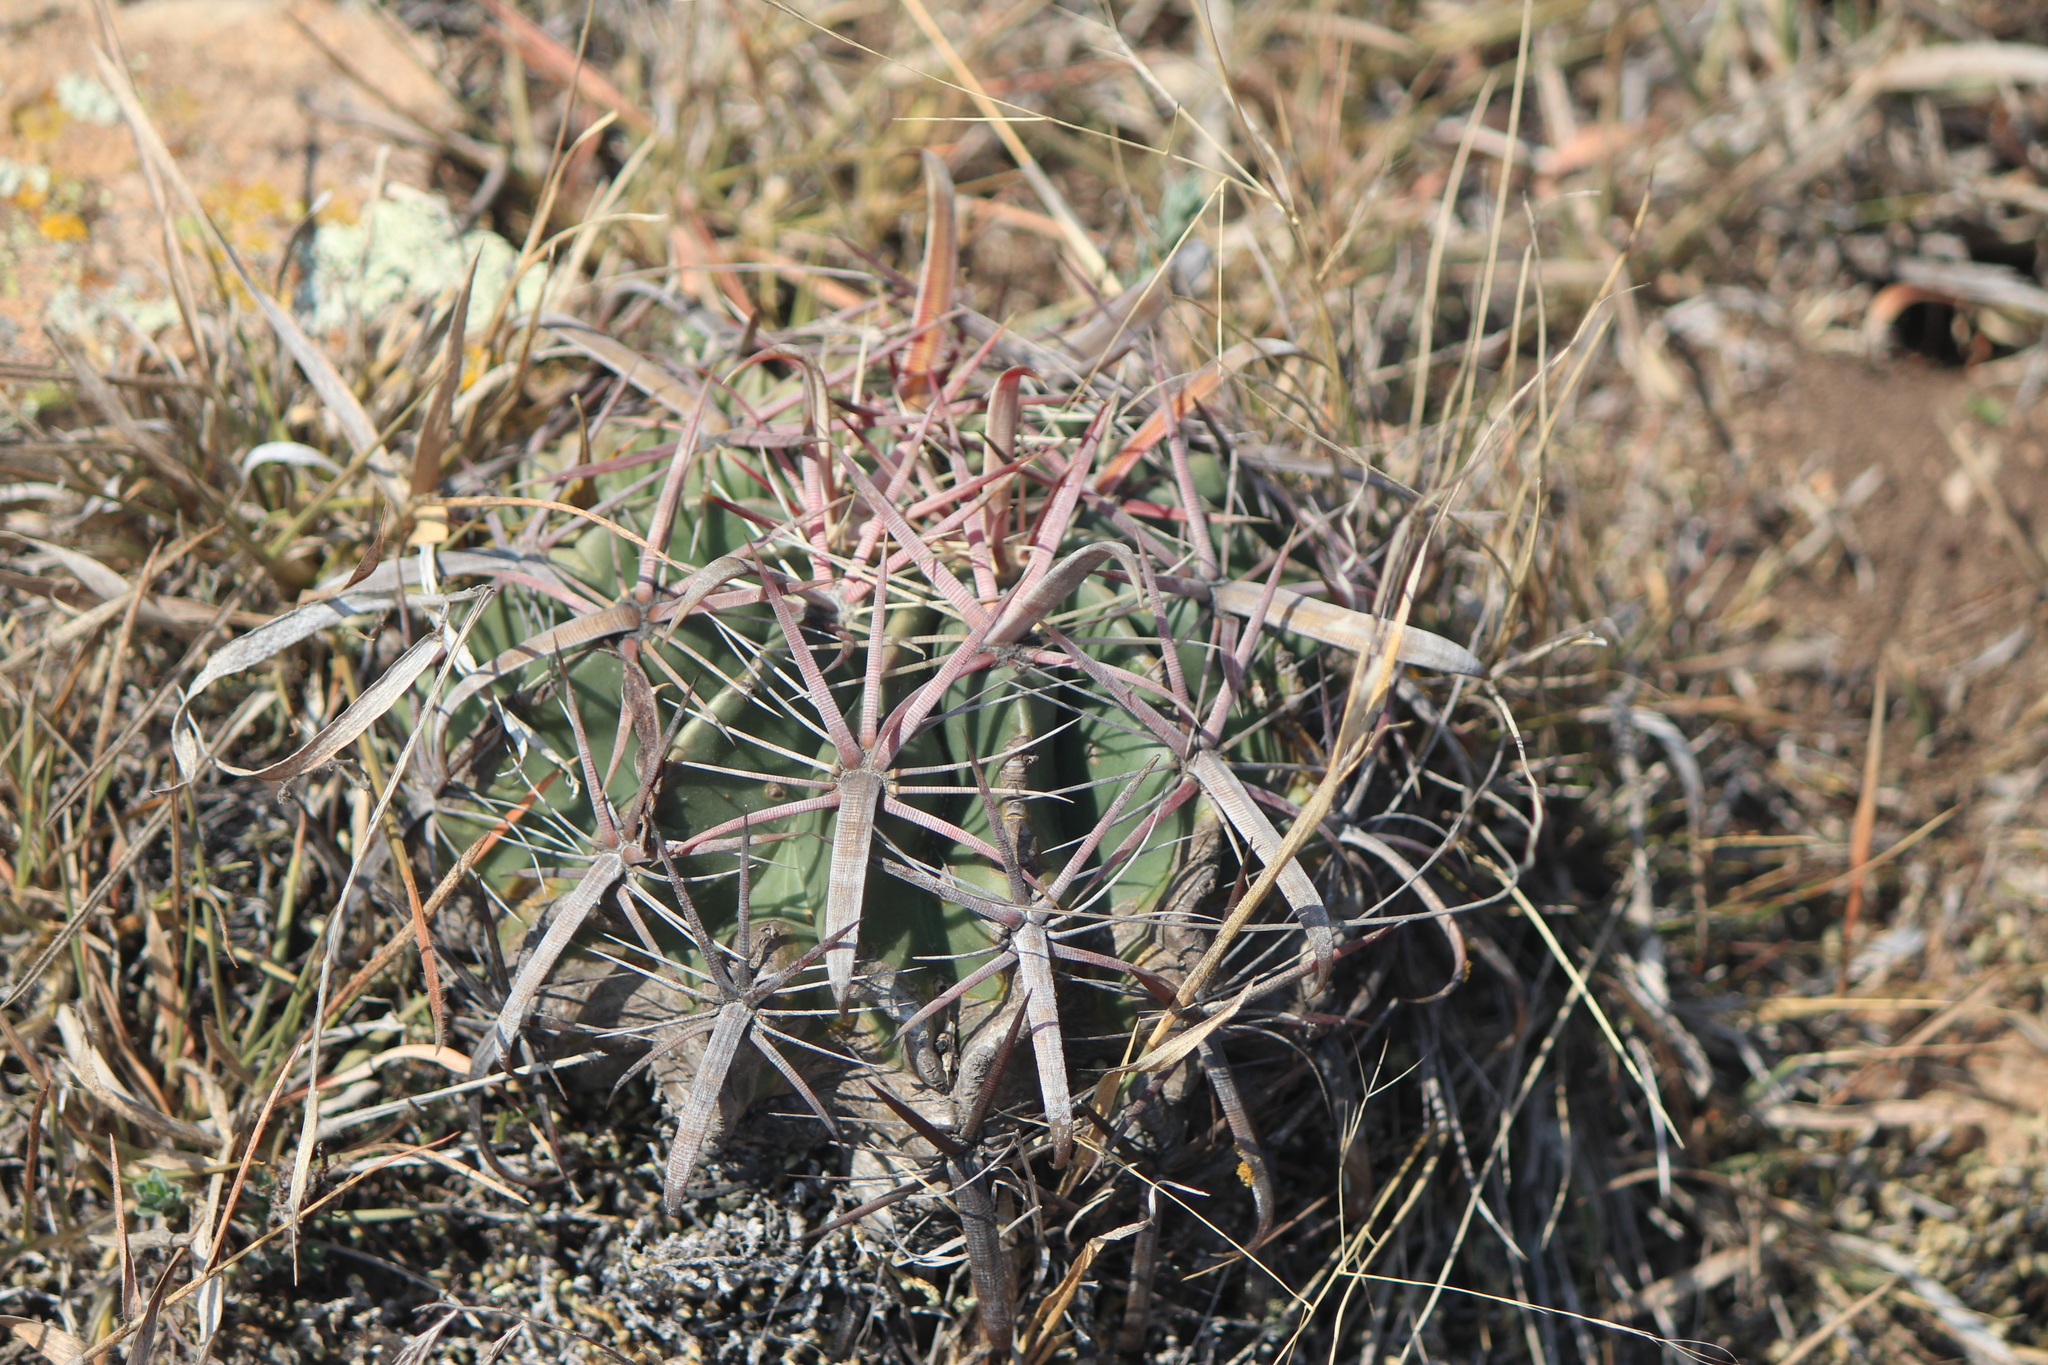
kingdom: Plantae
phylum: Tracheophyta
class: Magnoliopsida
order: Caryophyllales
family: Cactaceae
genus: Ferocactus
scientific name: Ferocactus latispinus
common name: Devil's-tongue cactus
